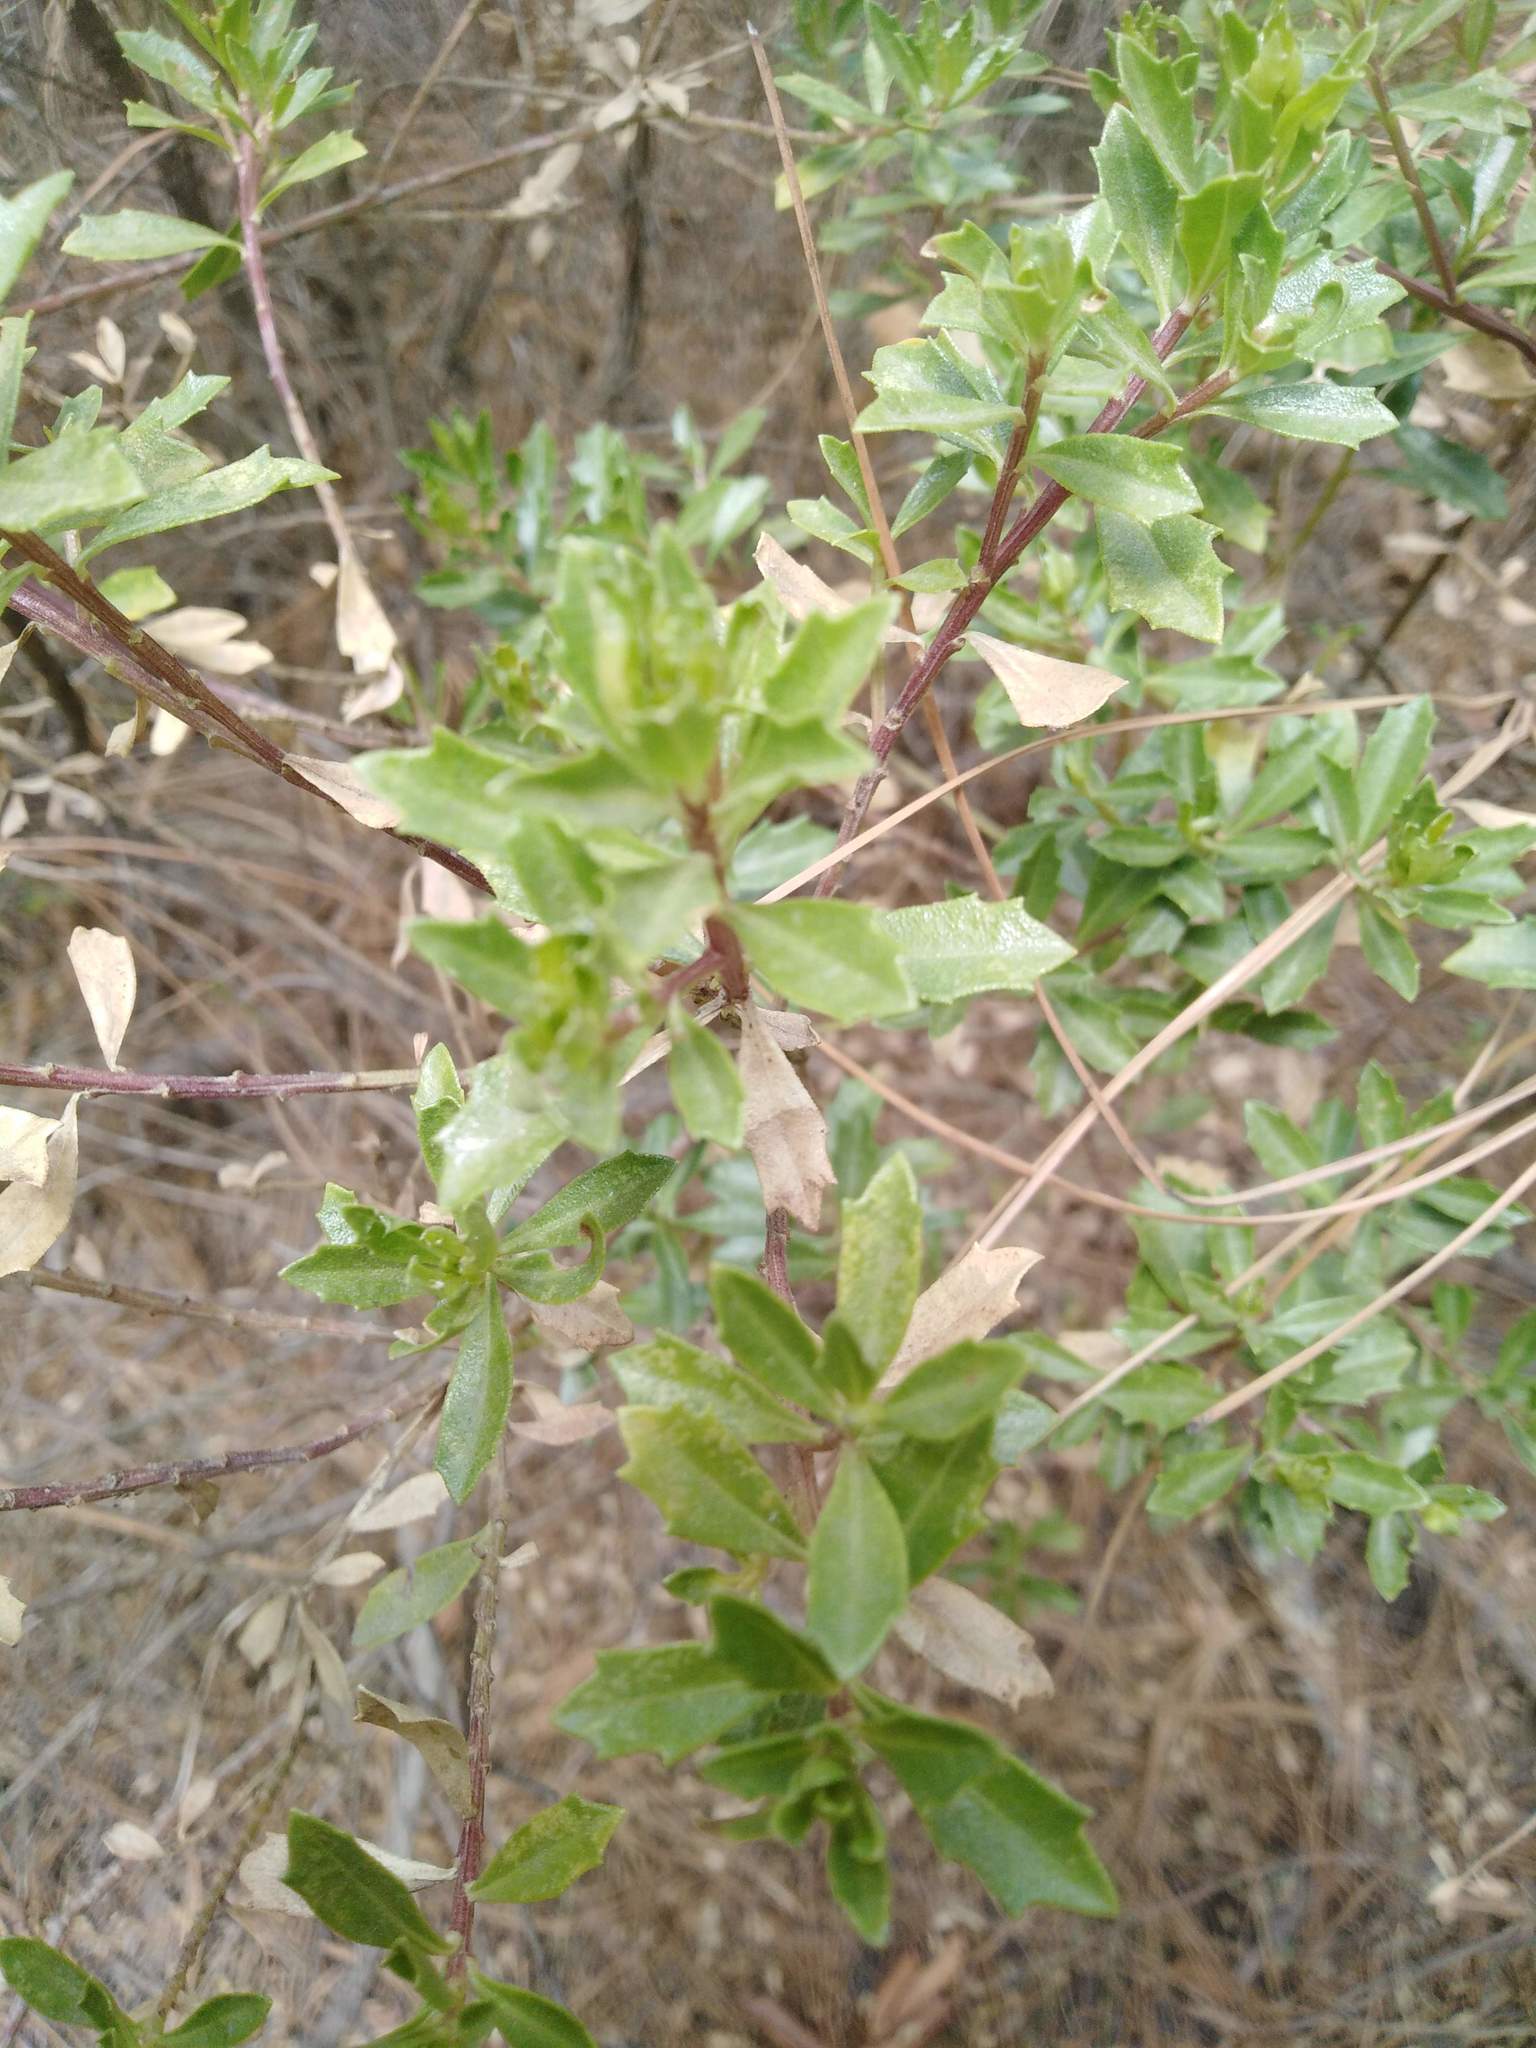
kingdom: Plantae
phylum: Tracheophyta
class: Magnoliopsida
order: Asterales
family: Asteraceae
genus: Baccharis
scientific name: Baccharis conferta
